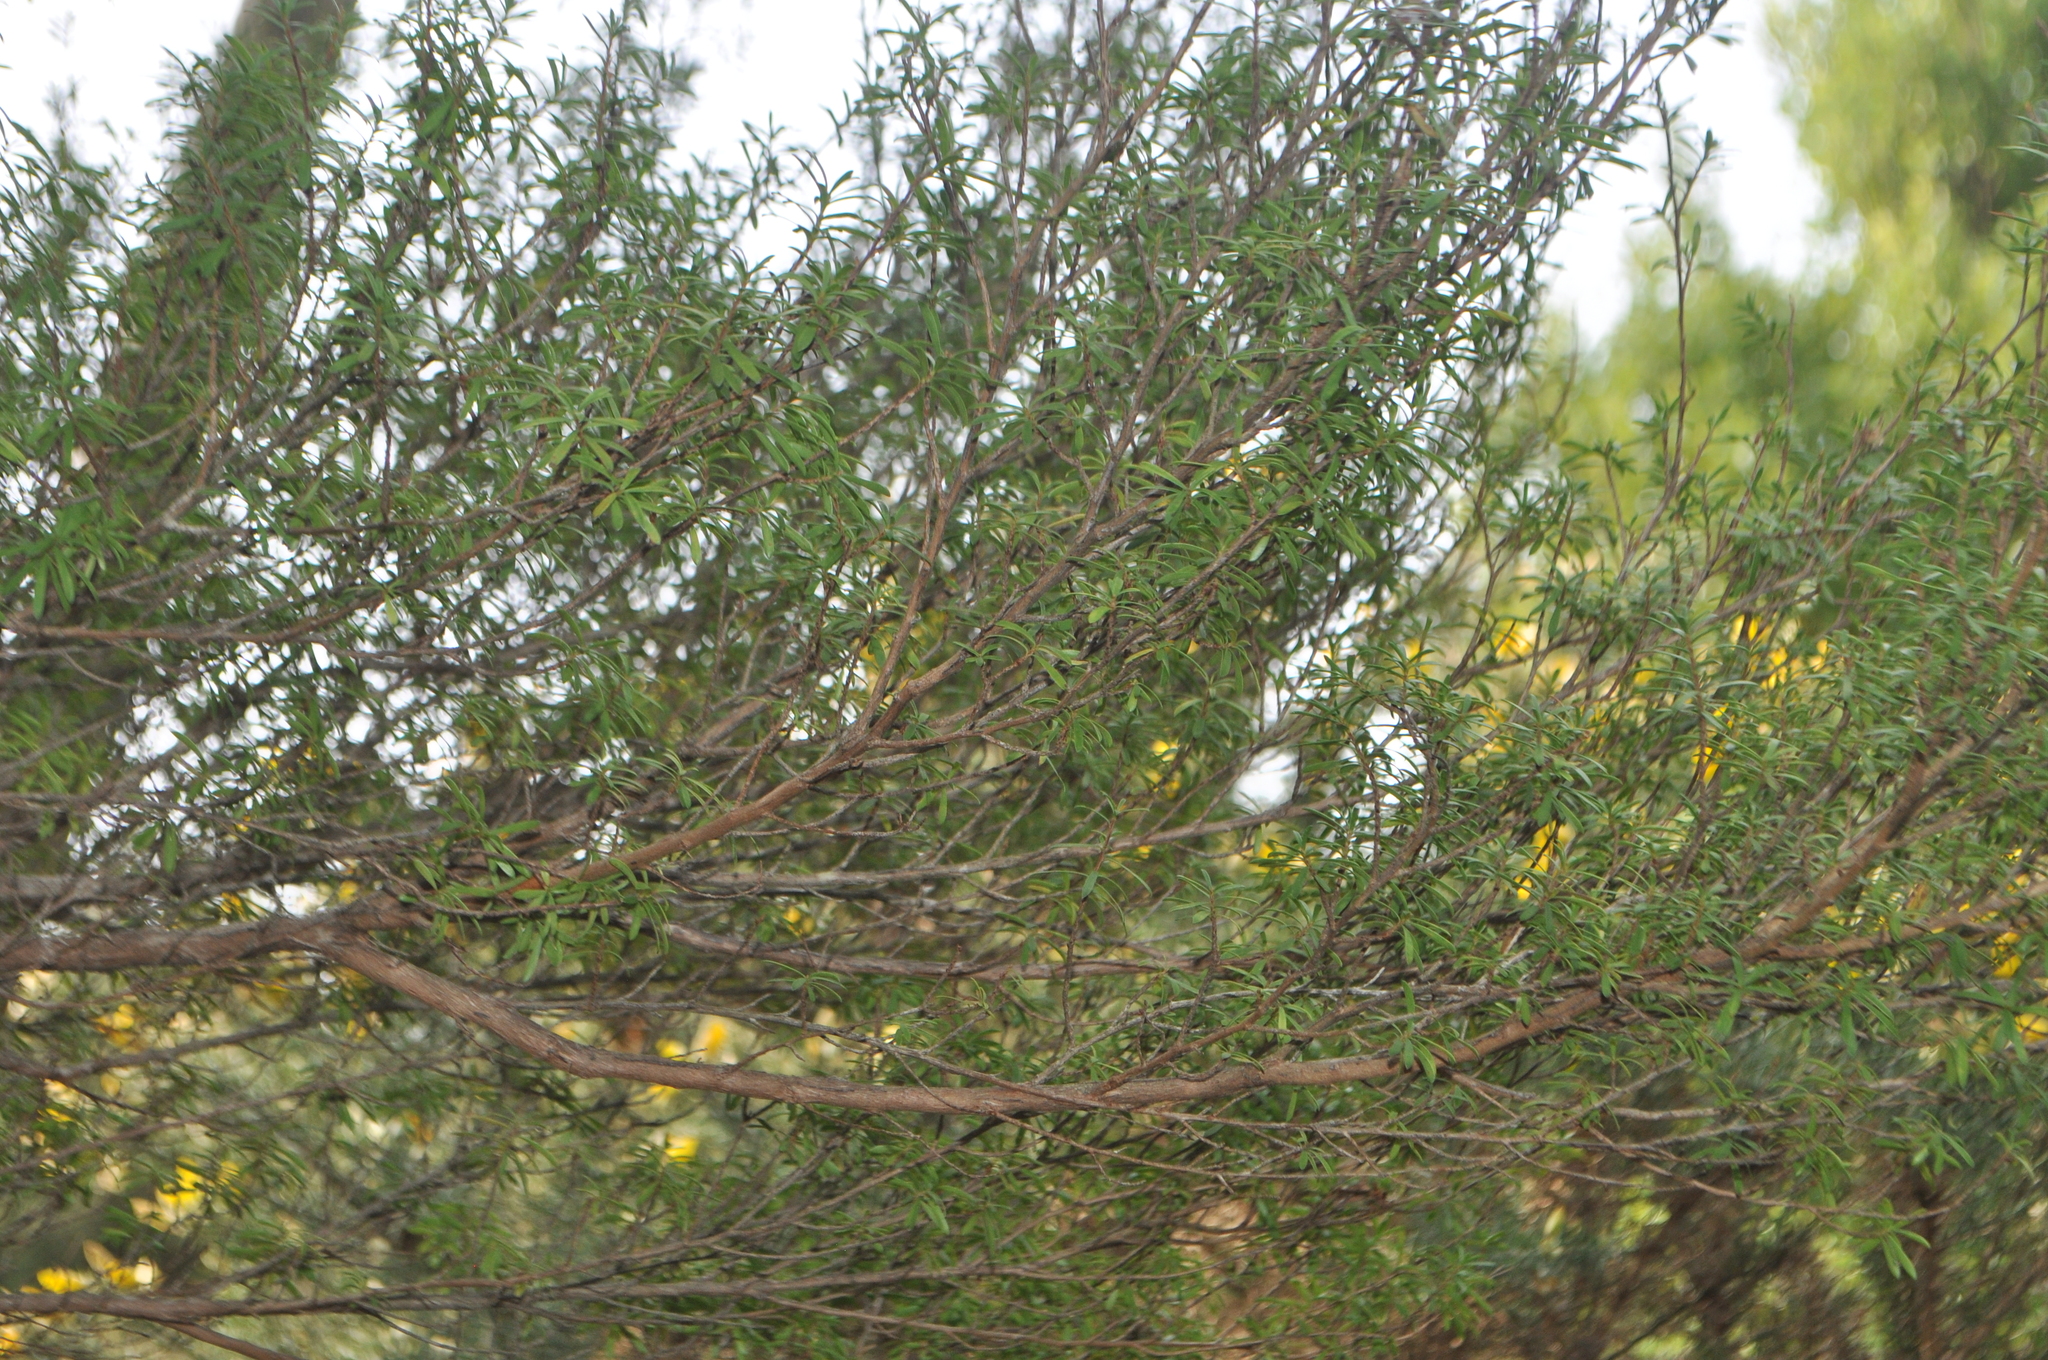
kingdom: Plantae
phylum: Tracheophyta
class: Magnoliopsida
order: Myrtales
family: Myrtaceae
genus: Leptospermum
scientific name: Leptospermum scoparium
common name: Broom tea-tree
